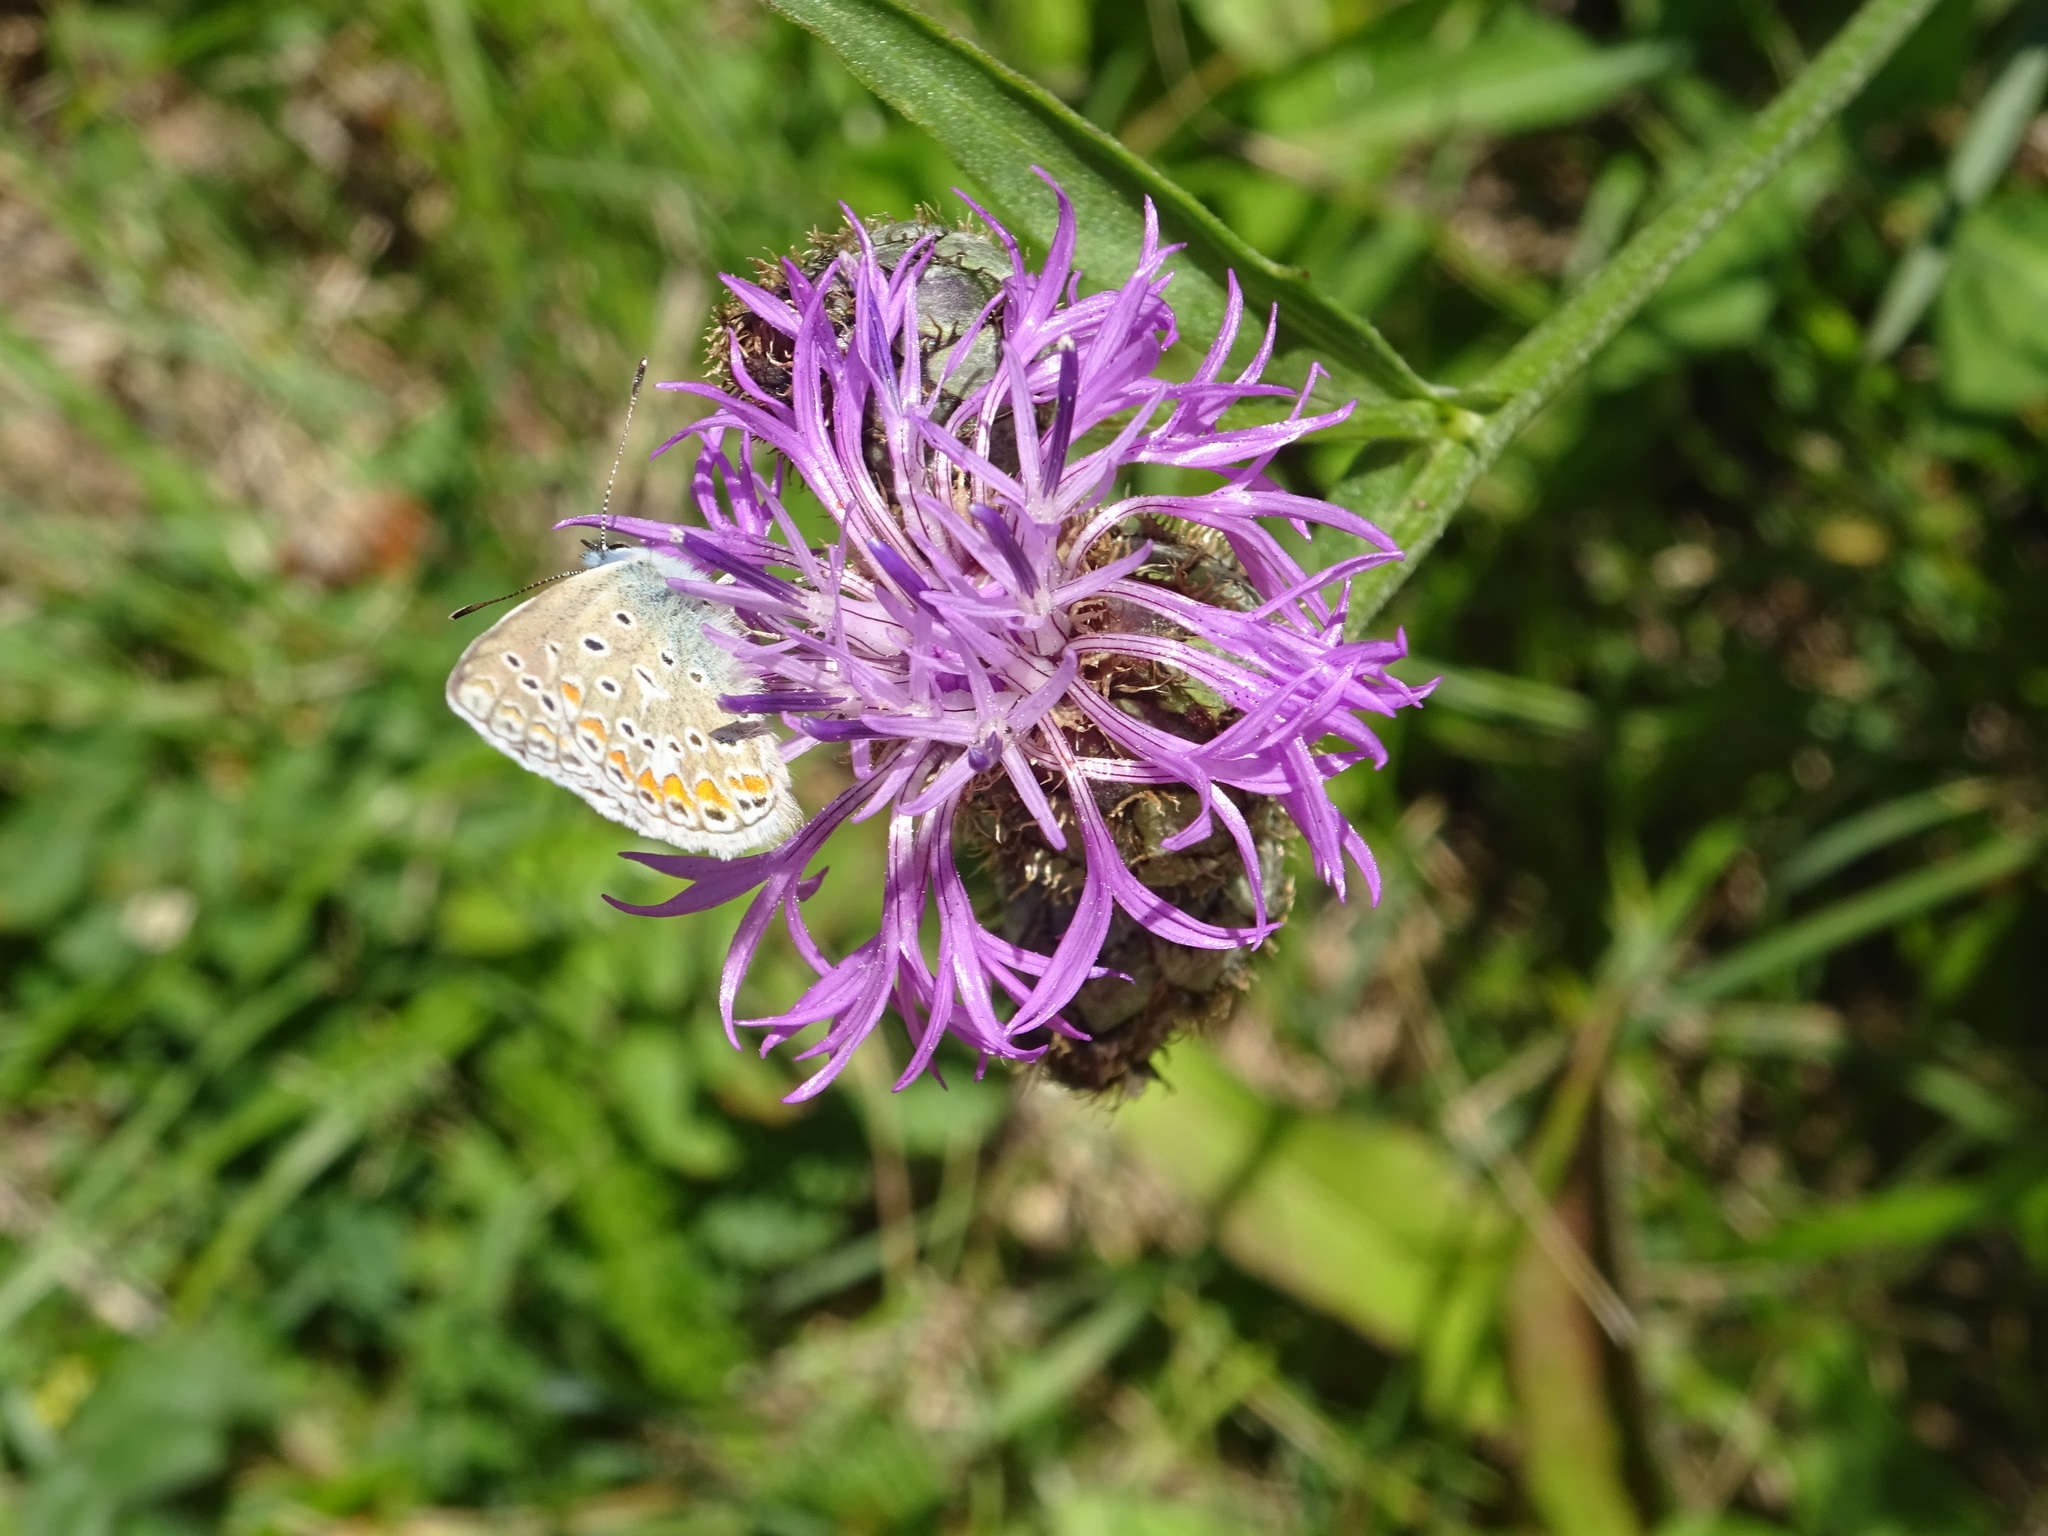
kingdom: Animalia
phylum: Arthropoda
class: Insecta
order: Lepidoptera
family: Lycaenidae
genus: Polyommatus
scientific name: Polyommatus icarus
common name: Common blue
